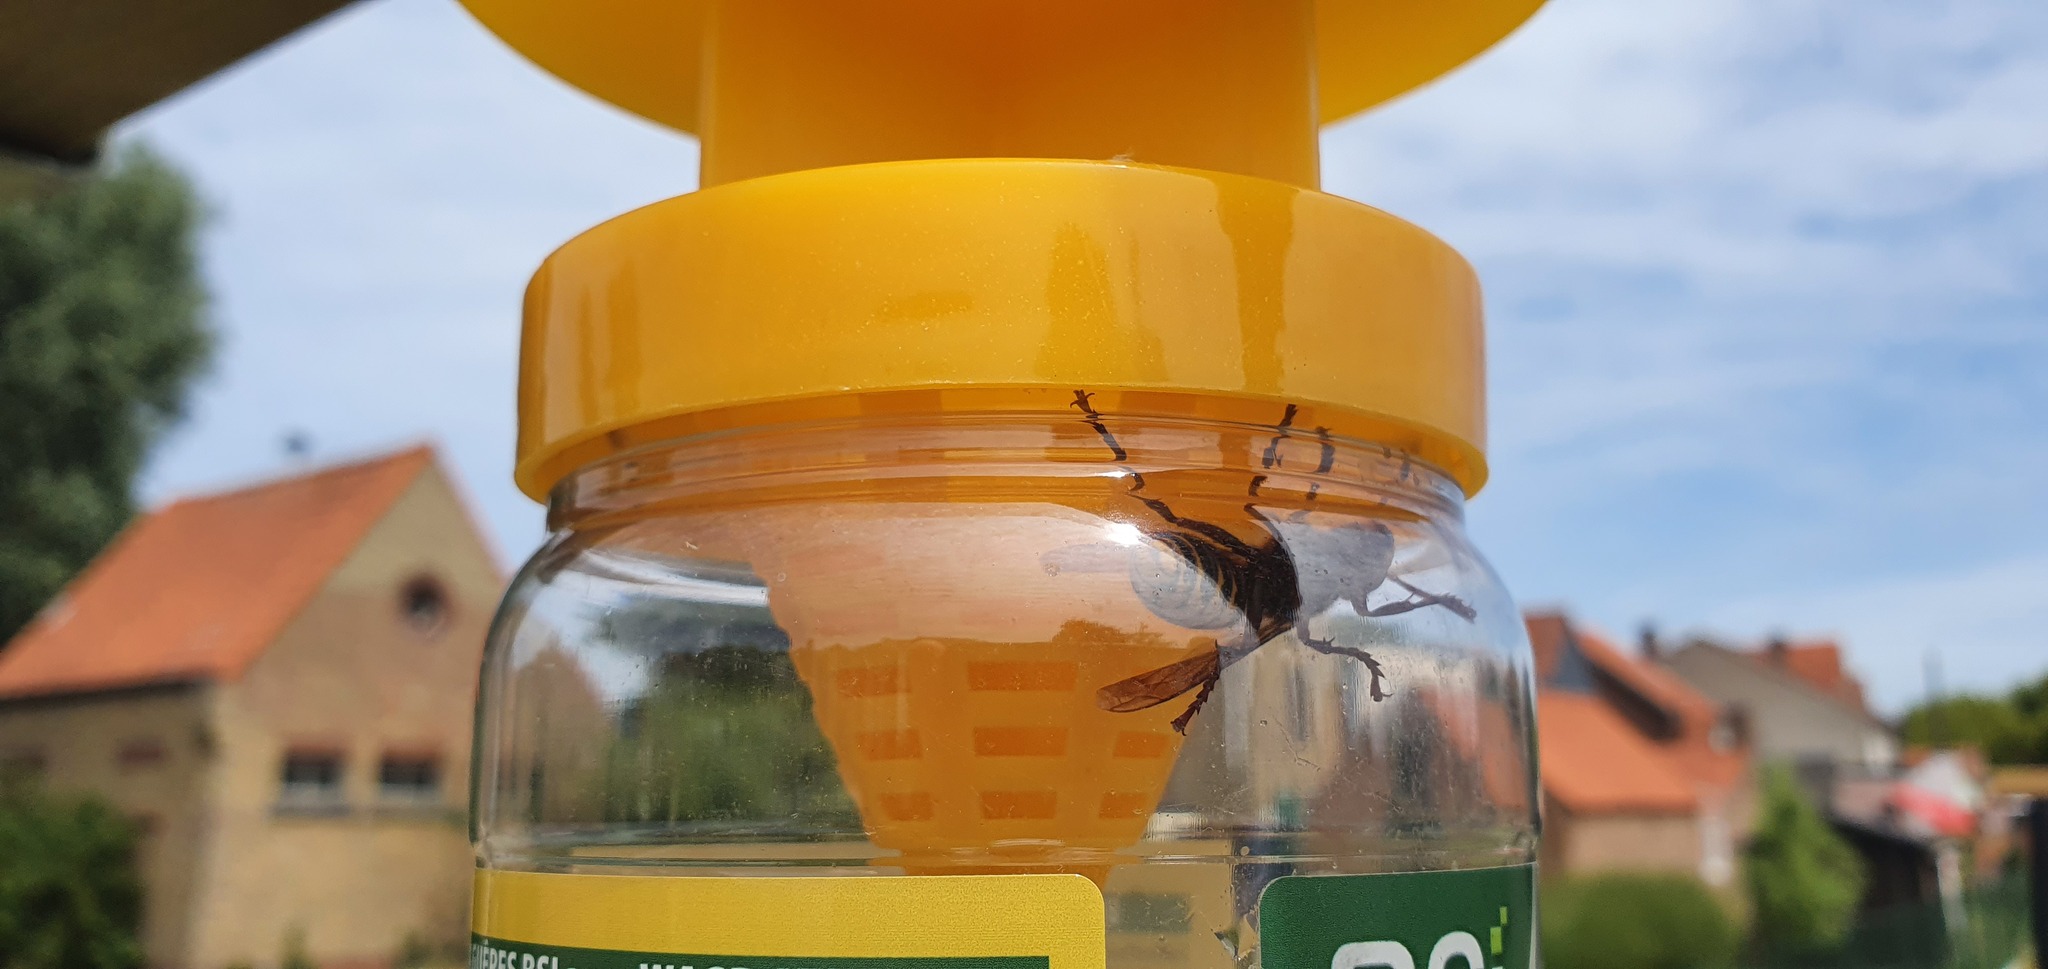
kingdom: Animalia
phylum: Arthropoda
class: Insecta
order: Hymenoptera
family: Vespidae
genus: Vespa
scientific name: Vespa crabro
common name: Hornet
